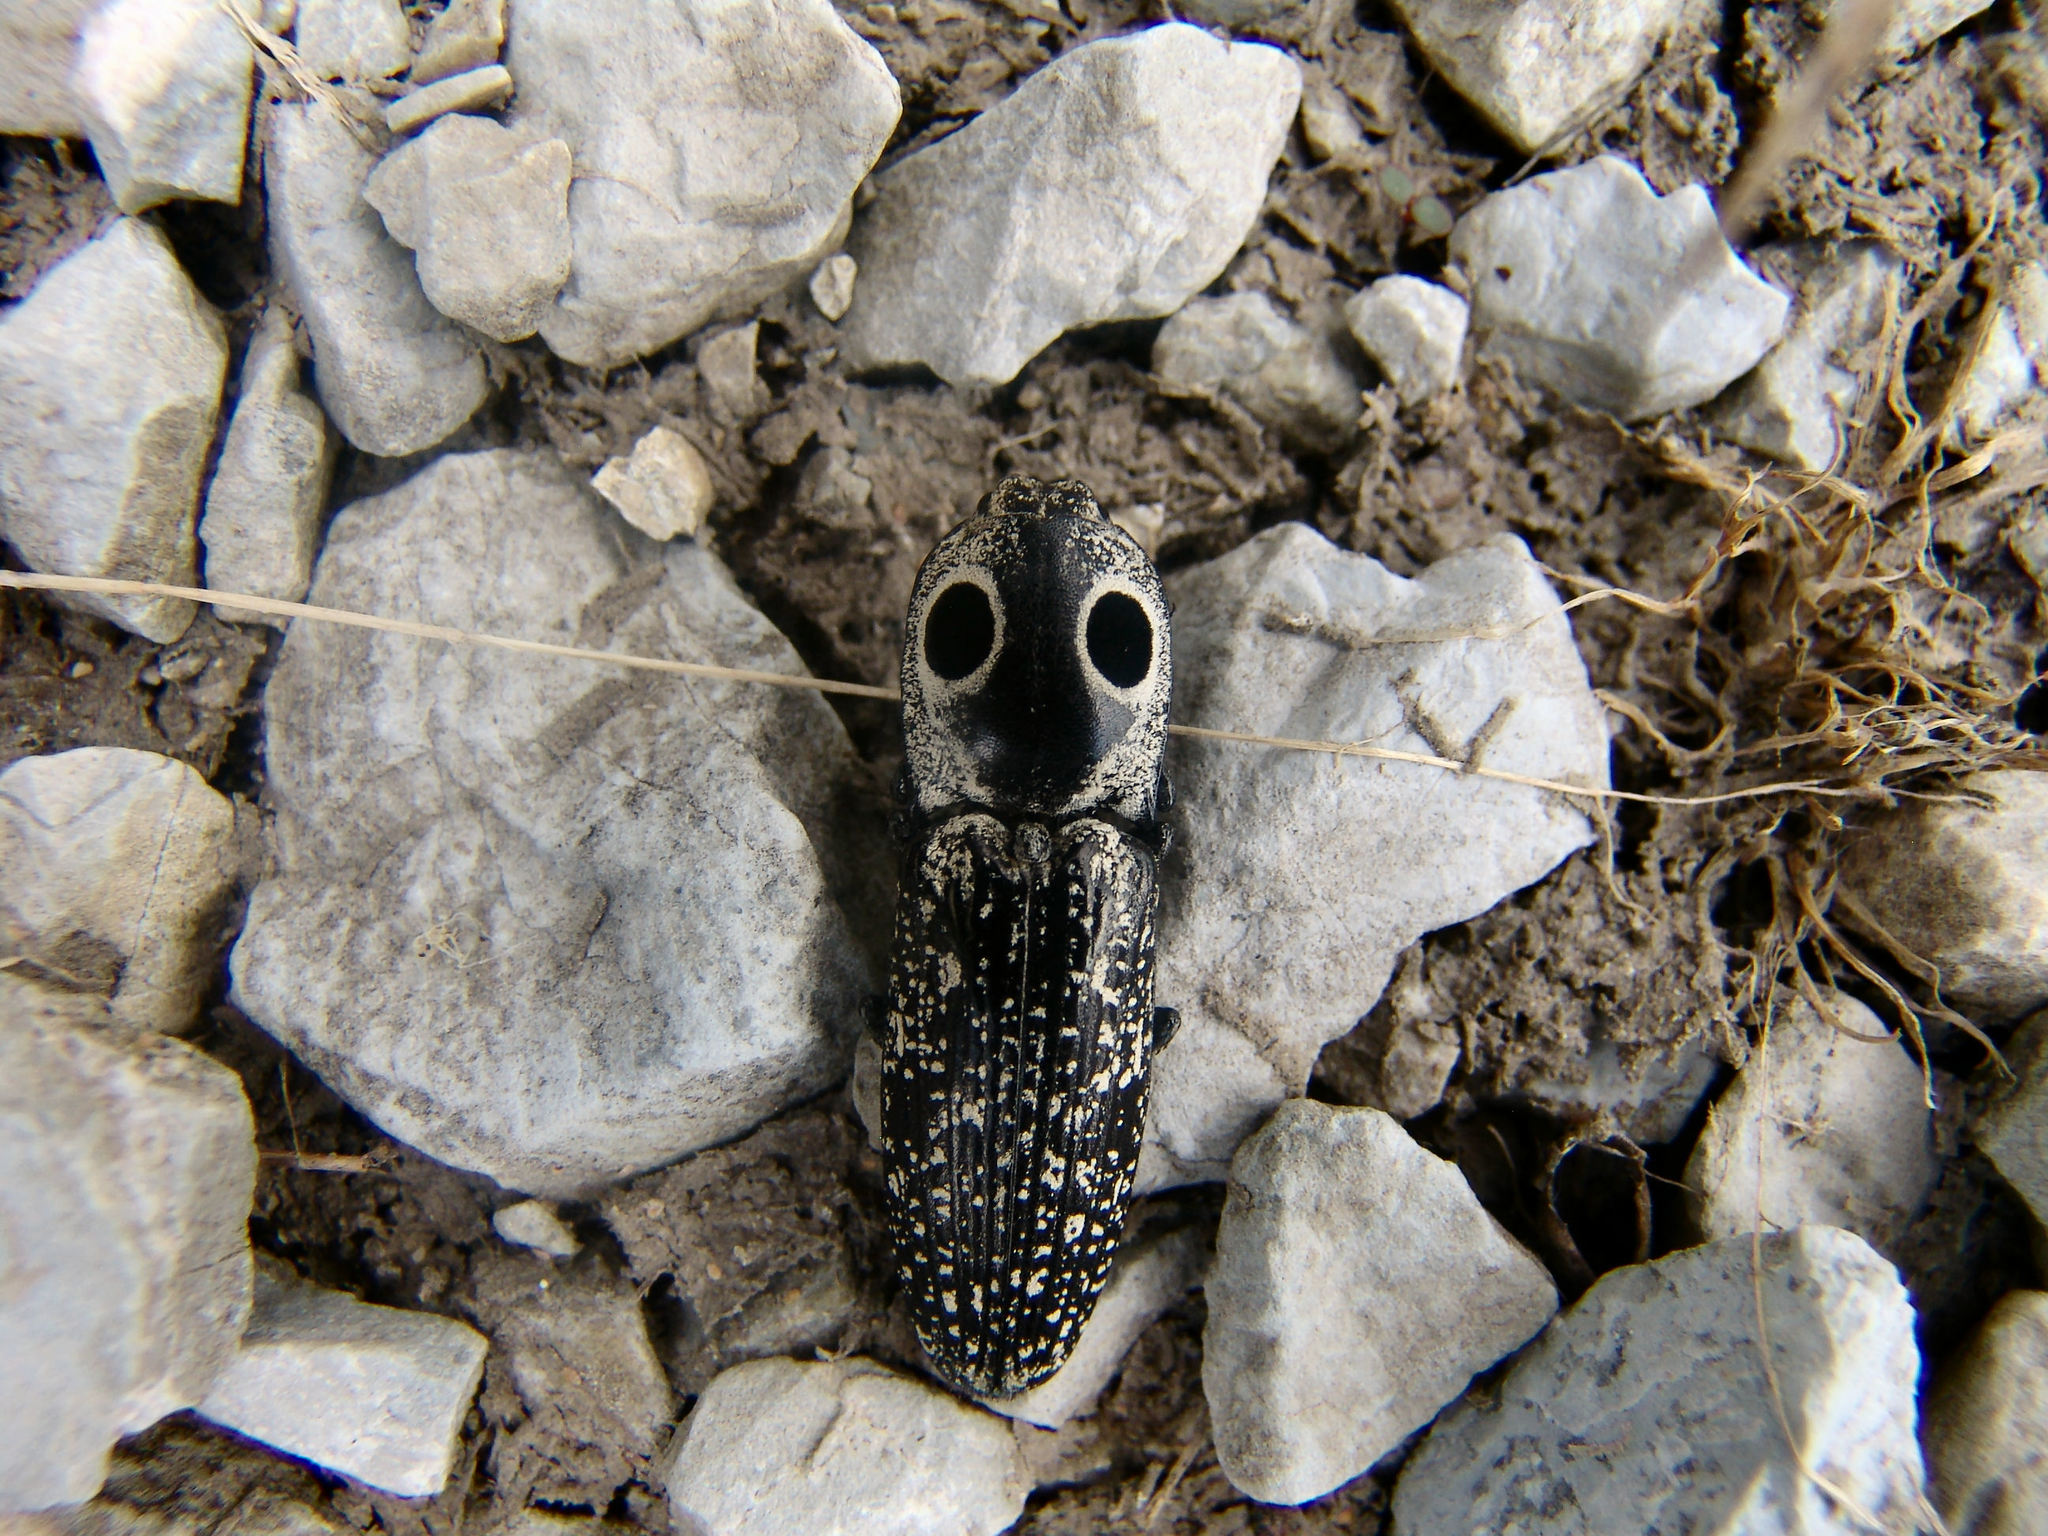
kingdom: Animalia
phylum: Arthropoda
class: Insecta
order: Coleoptera
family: Elateridae
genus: Alaus
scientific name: Alaus oculatus
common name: Eastern eyed click beetle
